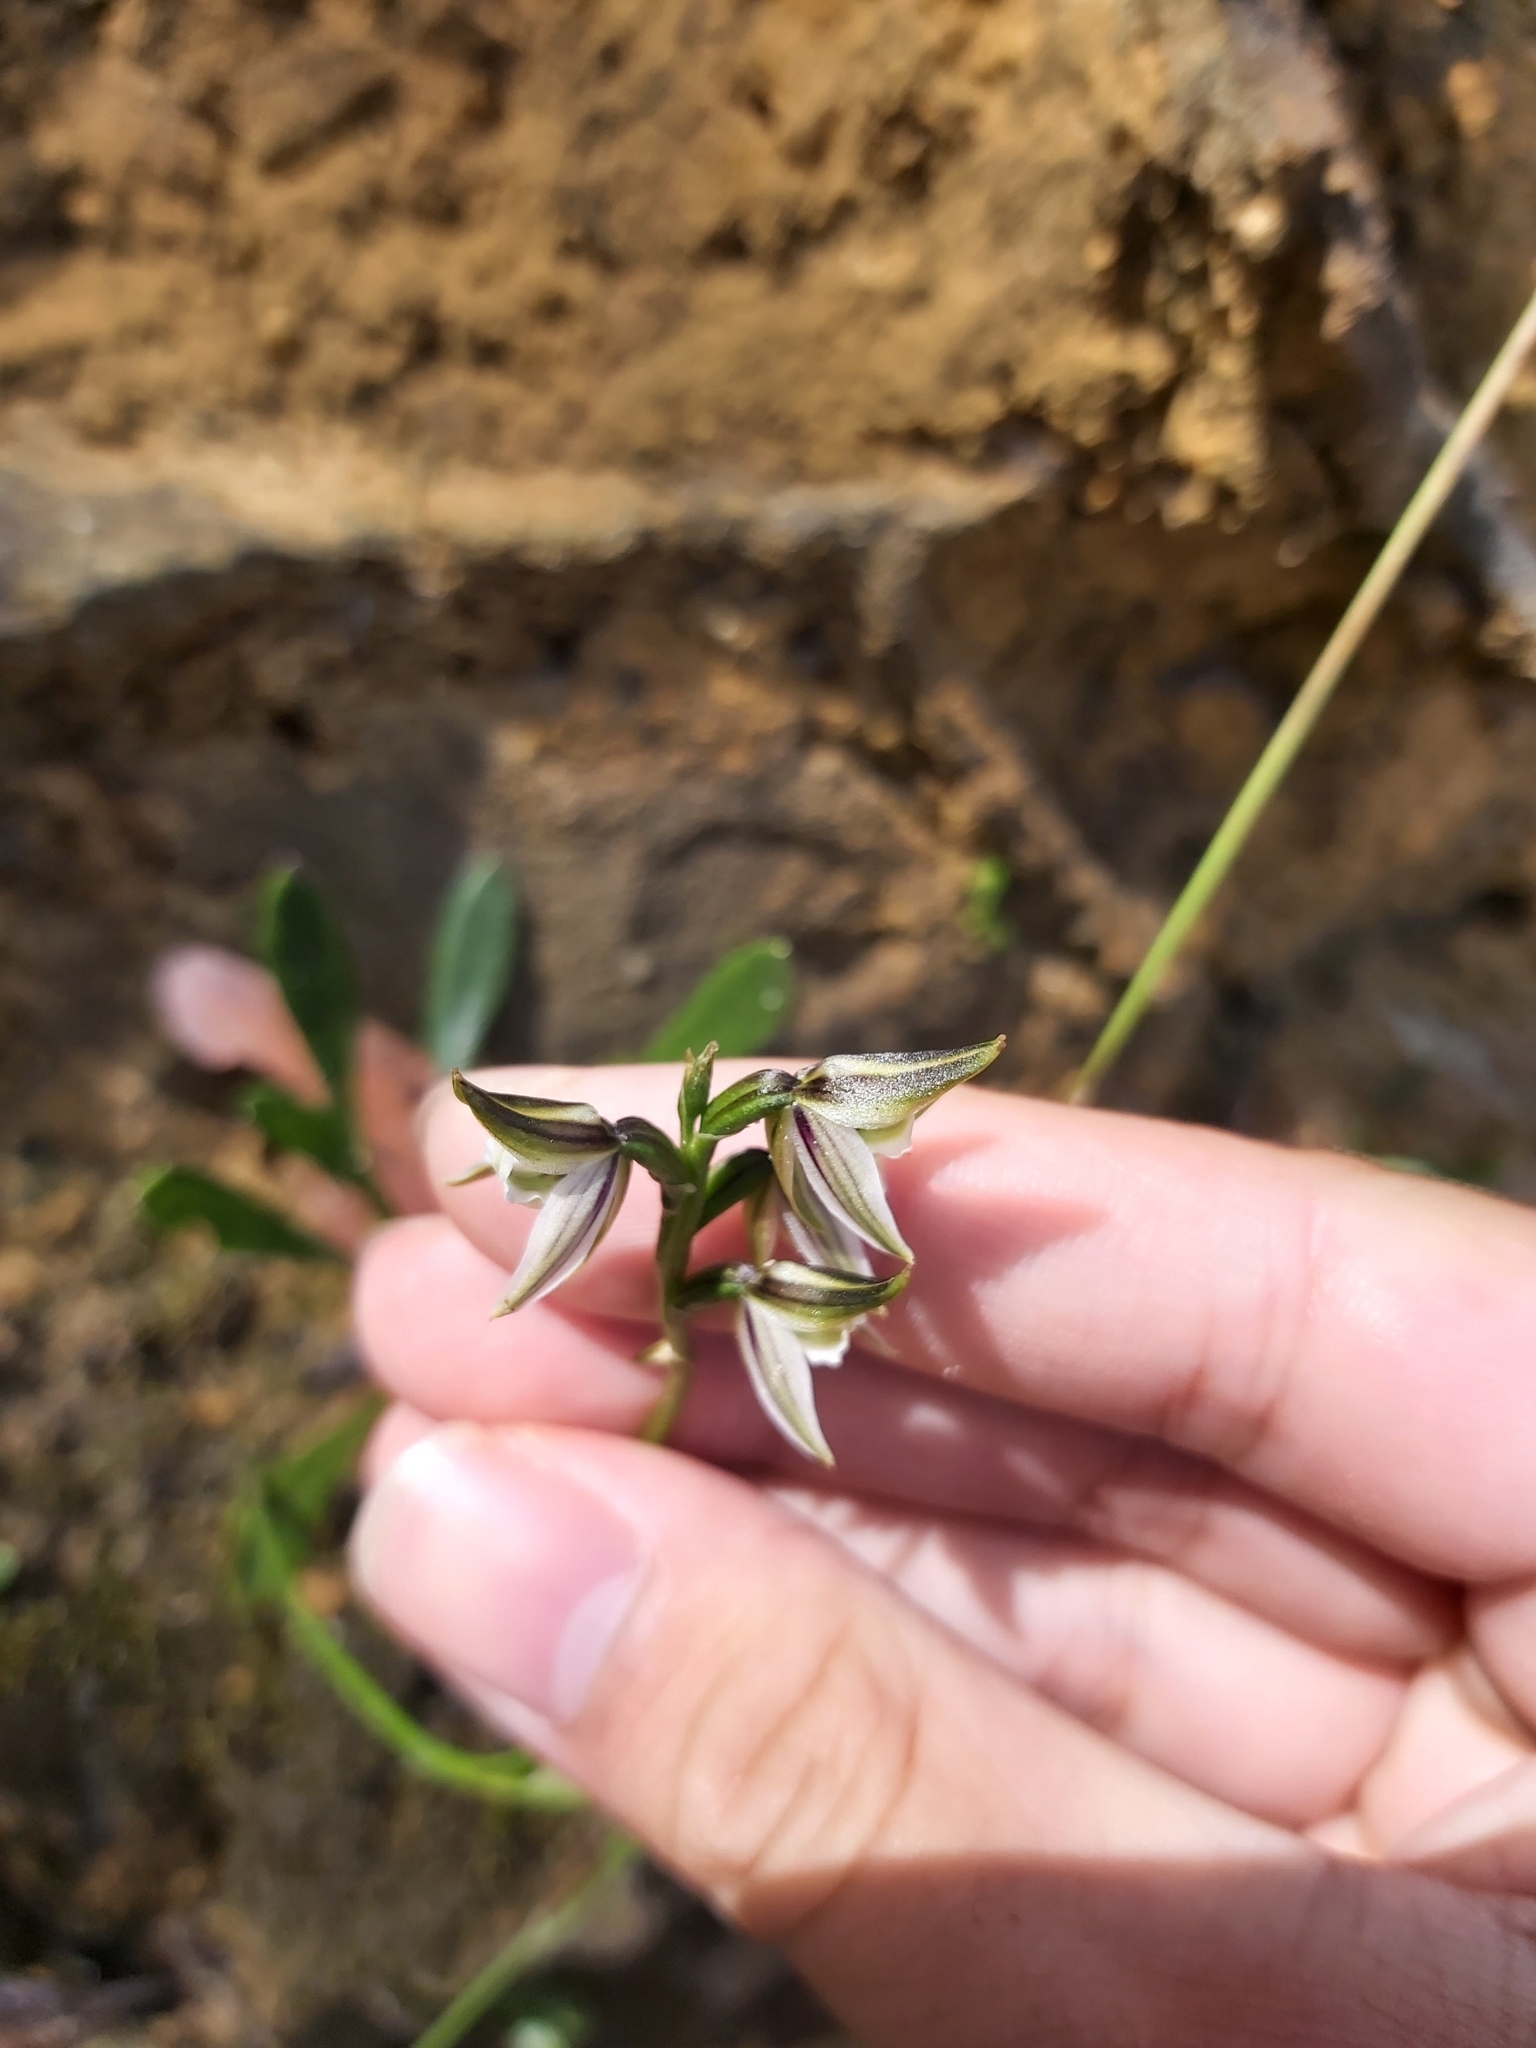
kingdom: Plantae
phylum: Tracheophyta
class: Liliopsida
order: Asparagales
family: Orchidaceae
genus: Prasophyllum
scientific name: Prasophyllum striatum
